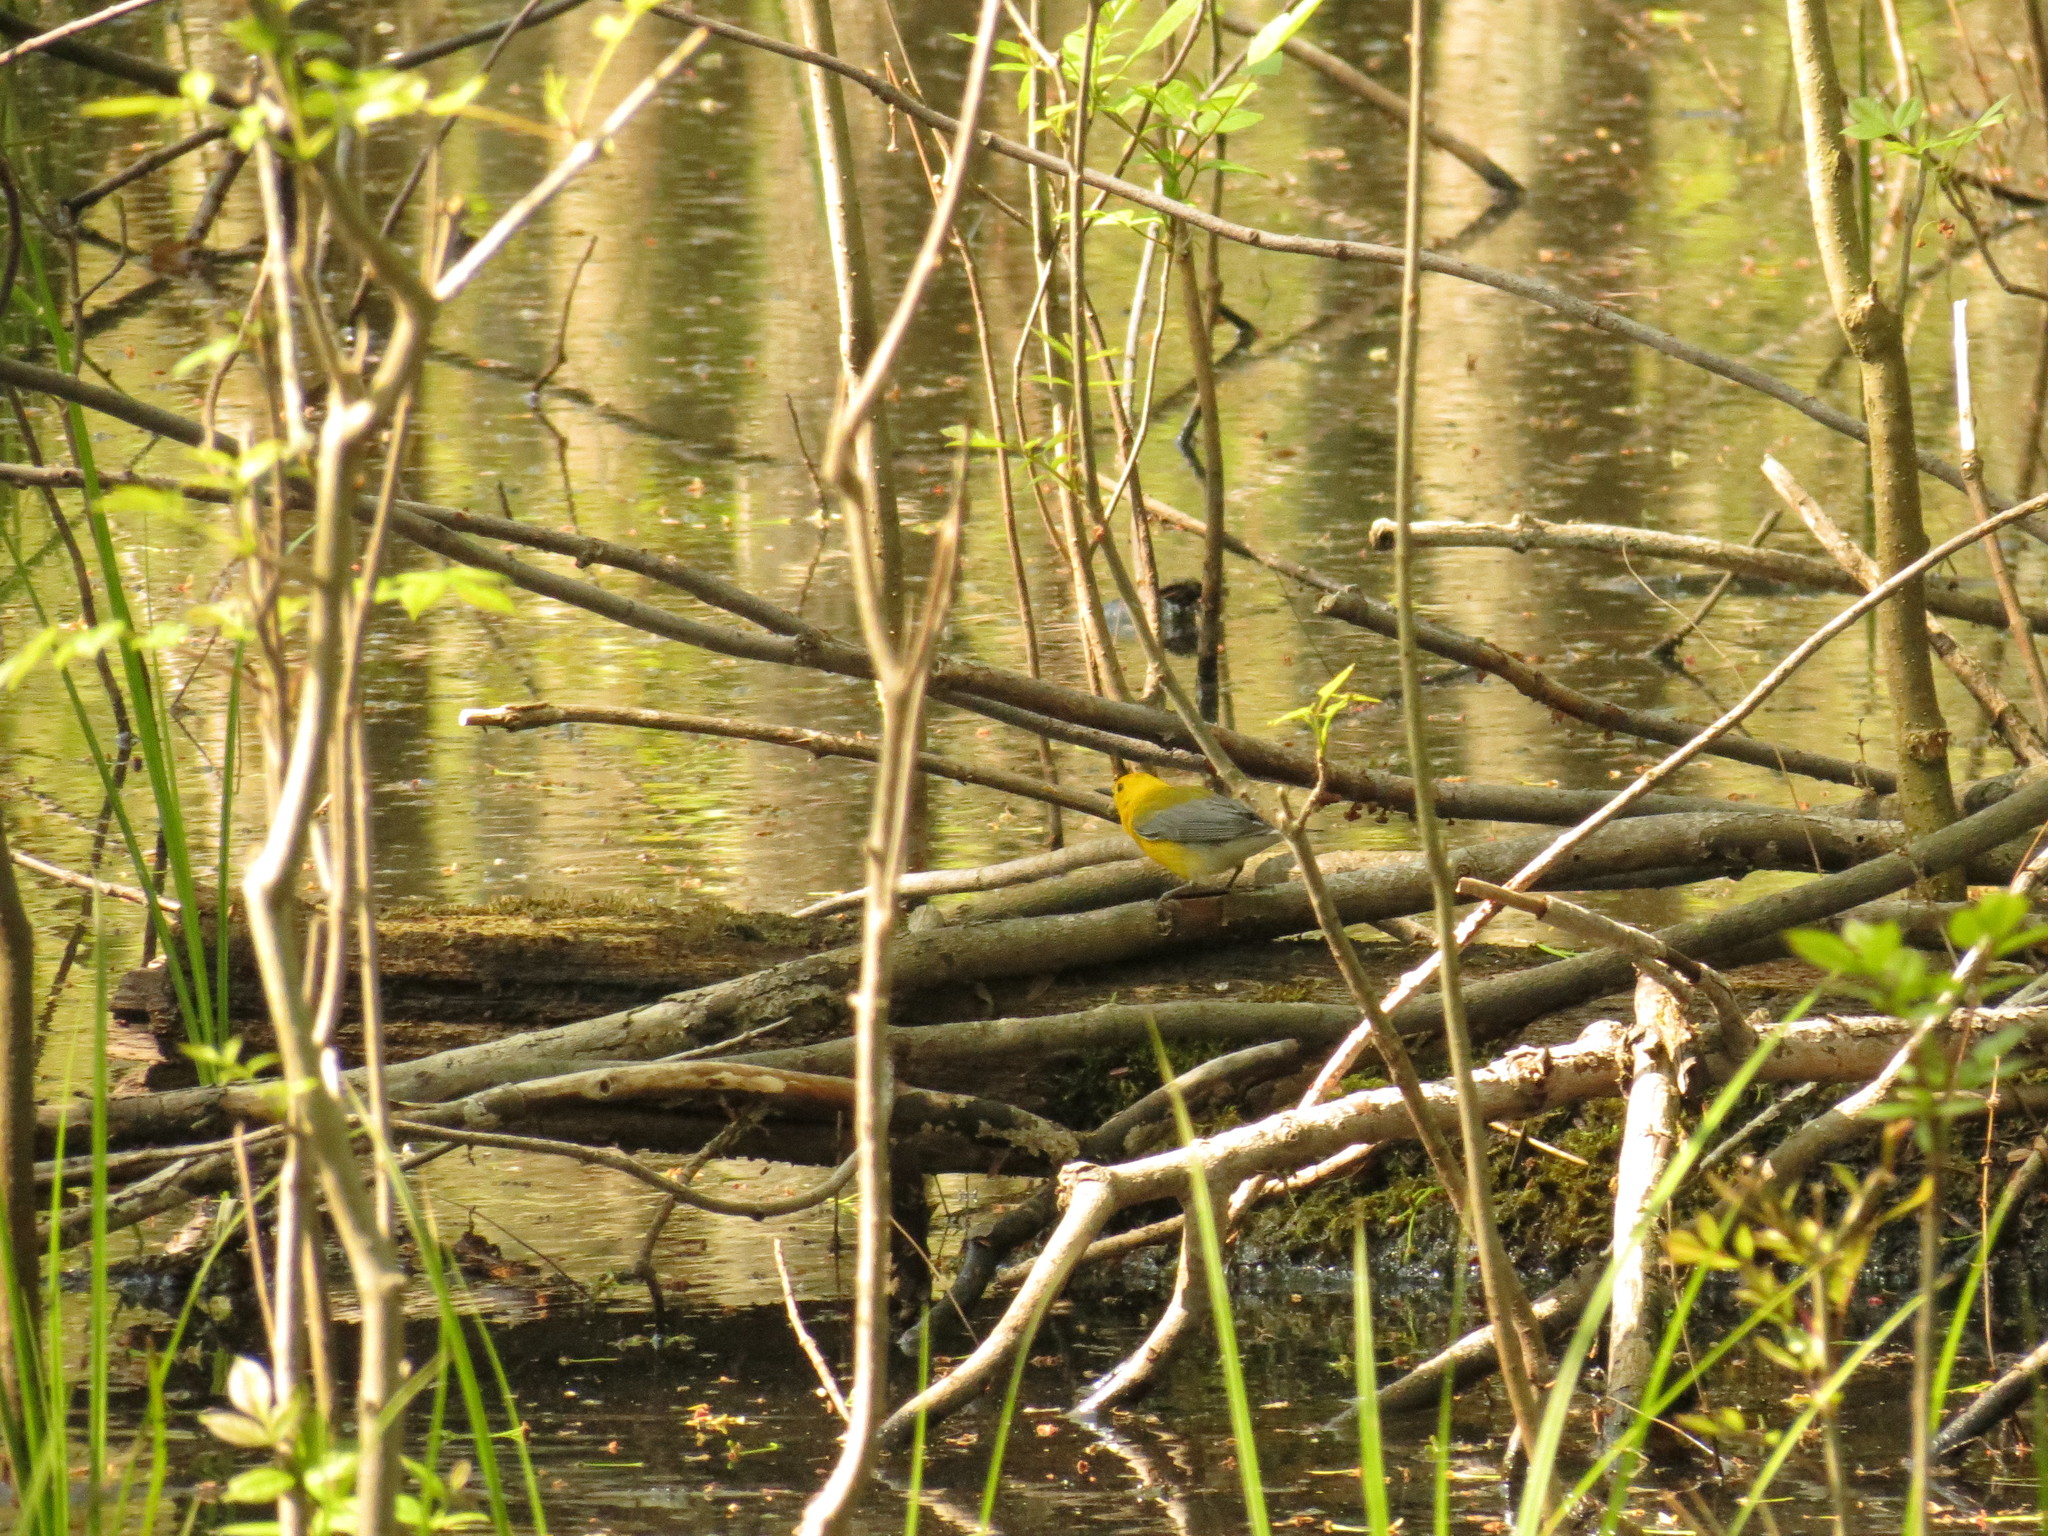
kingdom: Animalia
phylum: Chordata
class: Aves
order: Passeriformes
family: Parulidae
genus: Protonotaria
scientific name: Protonotaria citrea
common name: Prothonotary warbler
